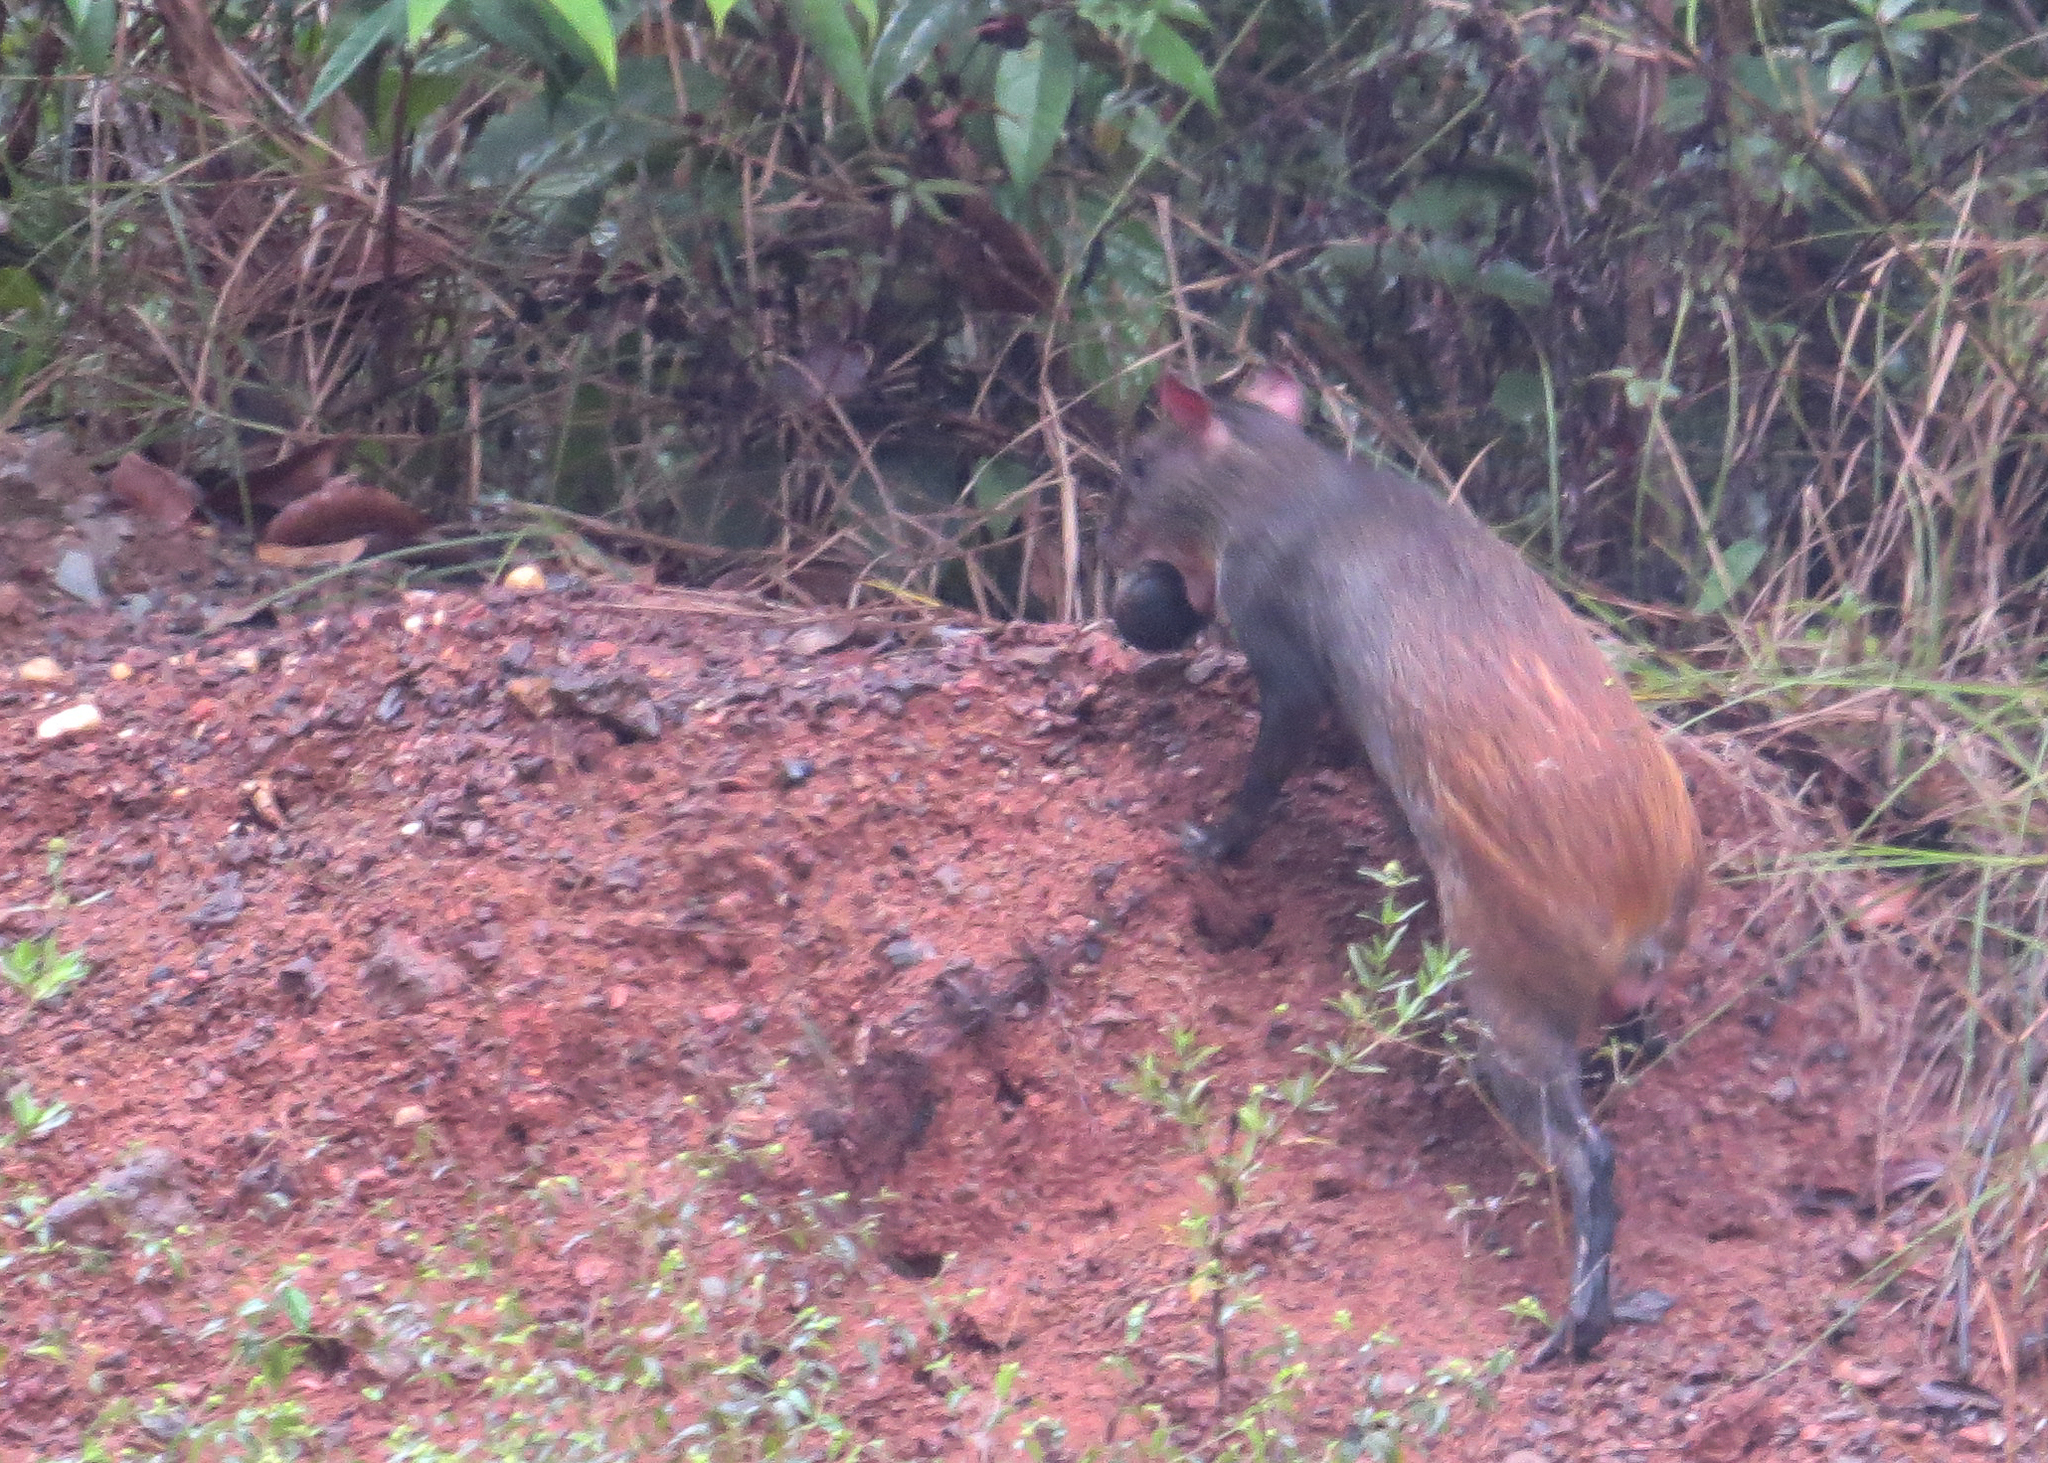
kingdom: Animalia
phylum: Chordata
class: Mammalia
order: Rodentia
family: Dasyproctidae
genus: Dasyprocta
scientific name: Dasyprocta leporina
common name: Red-rumped agouti
